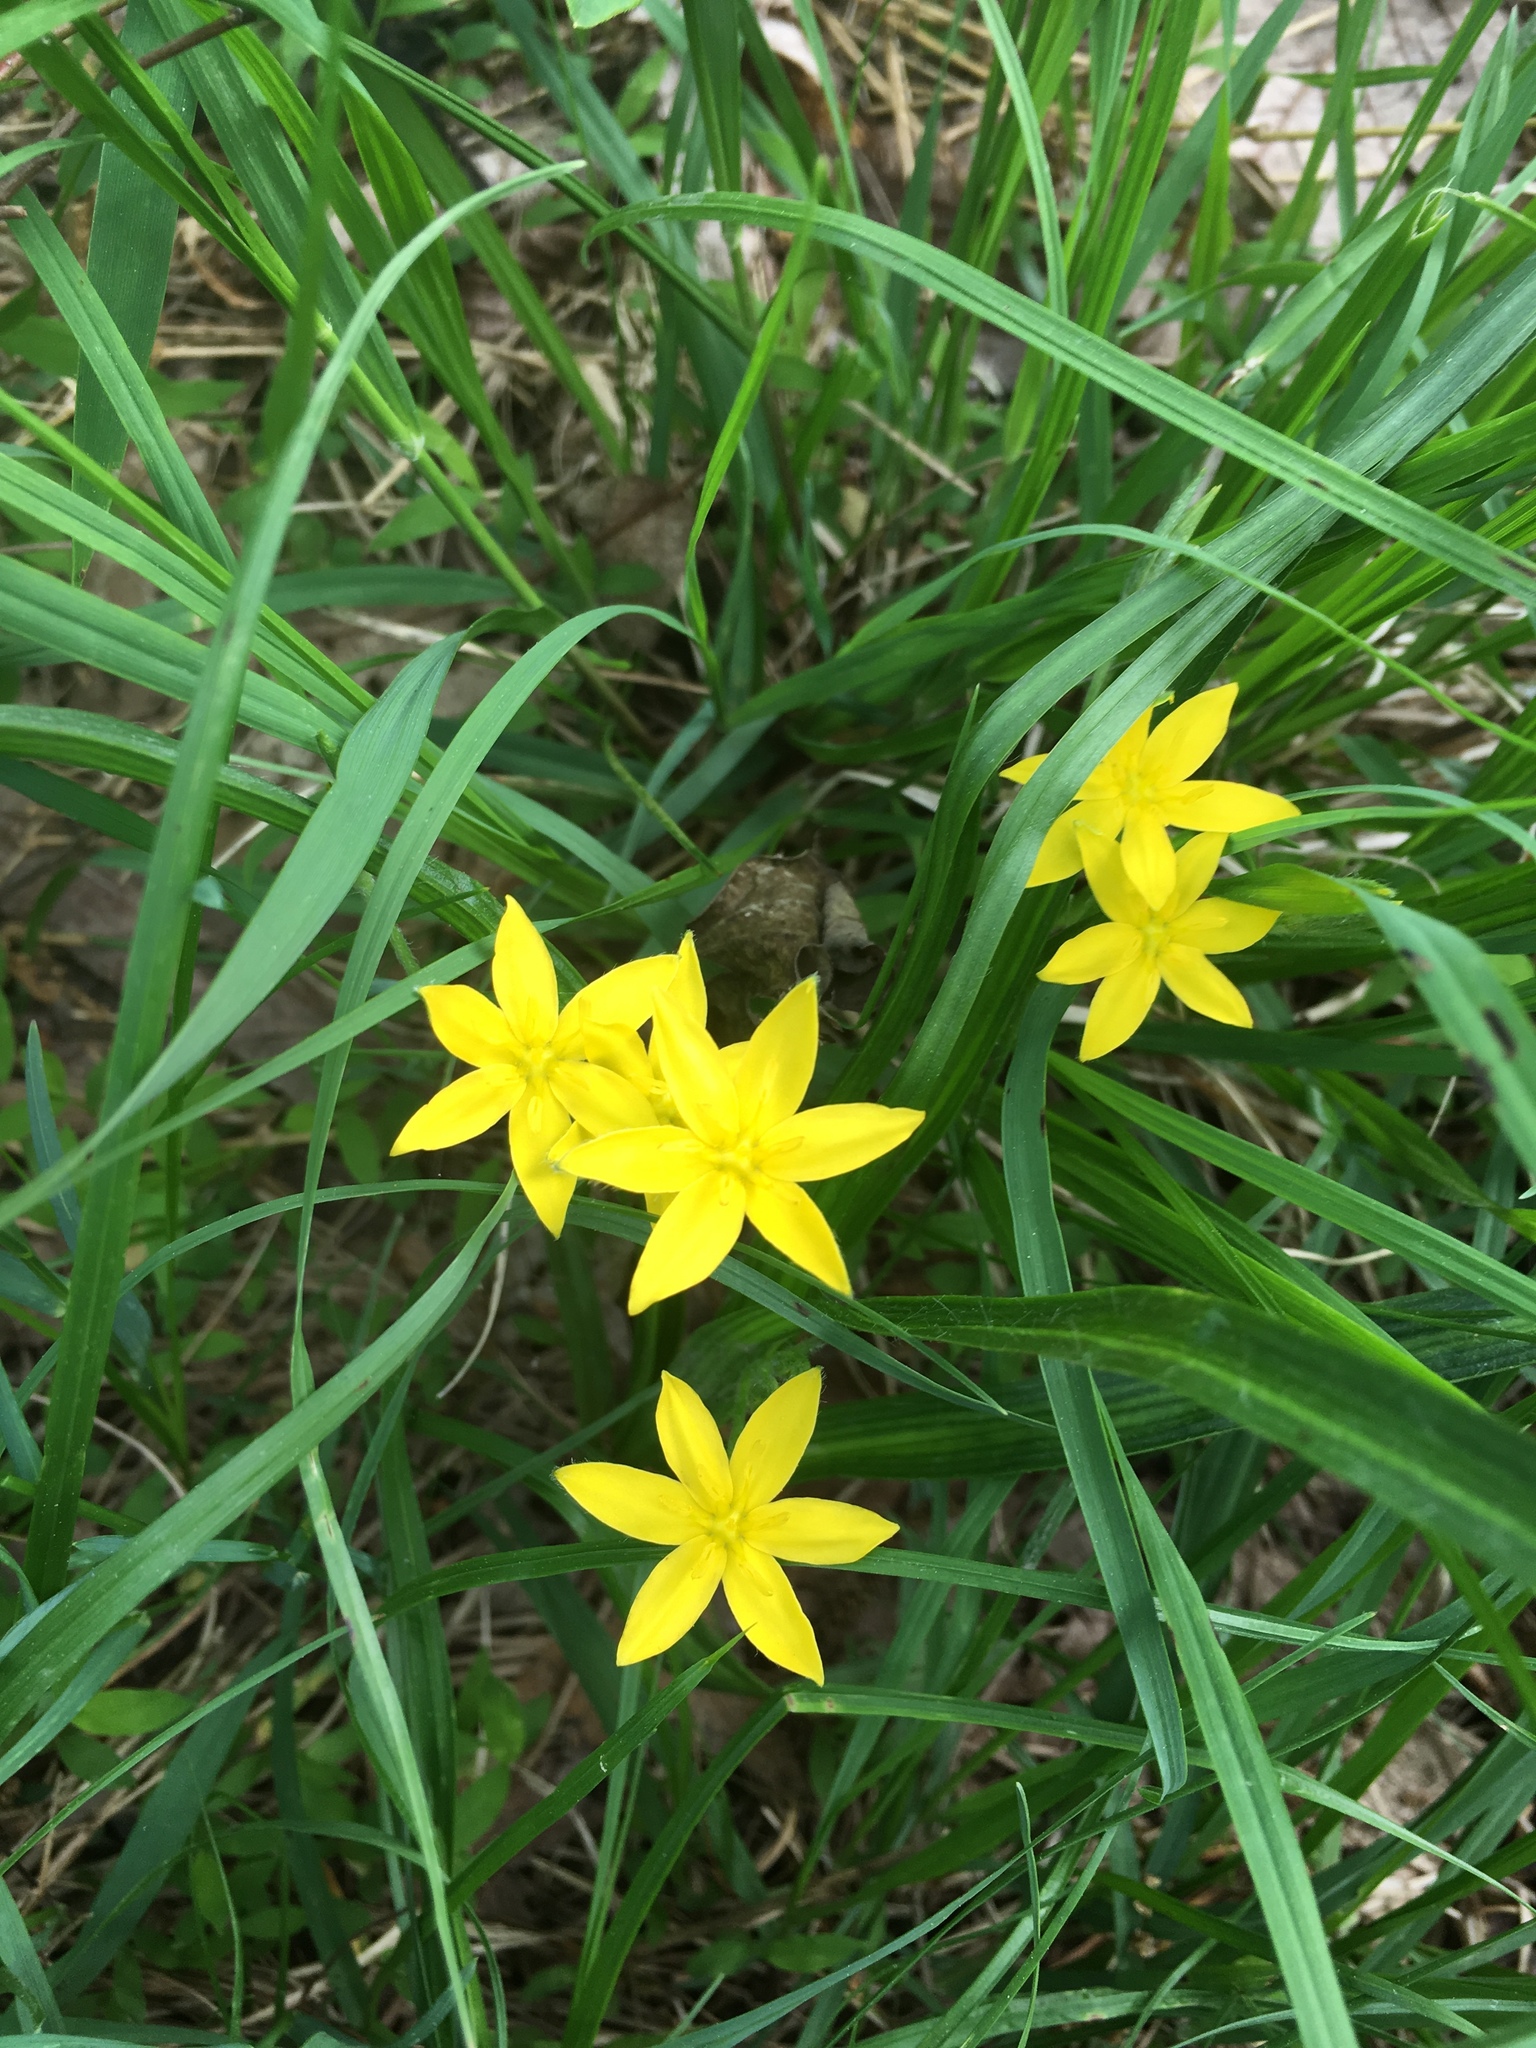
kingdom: Plantae
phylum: Tracheophyta
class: Liliopsida
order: Asparagales
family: Hypoxidaceae
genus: Hypoxis
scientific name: Hypoxis hirsuta
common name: Common goldstar
